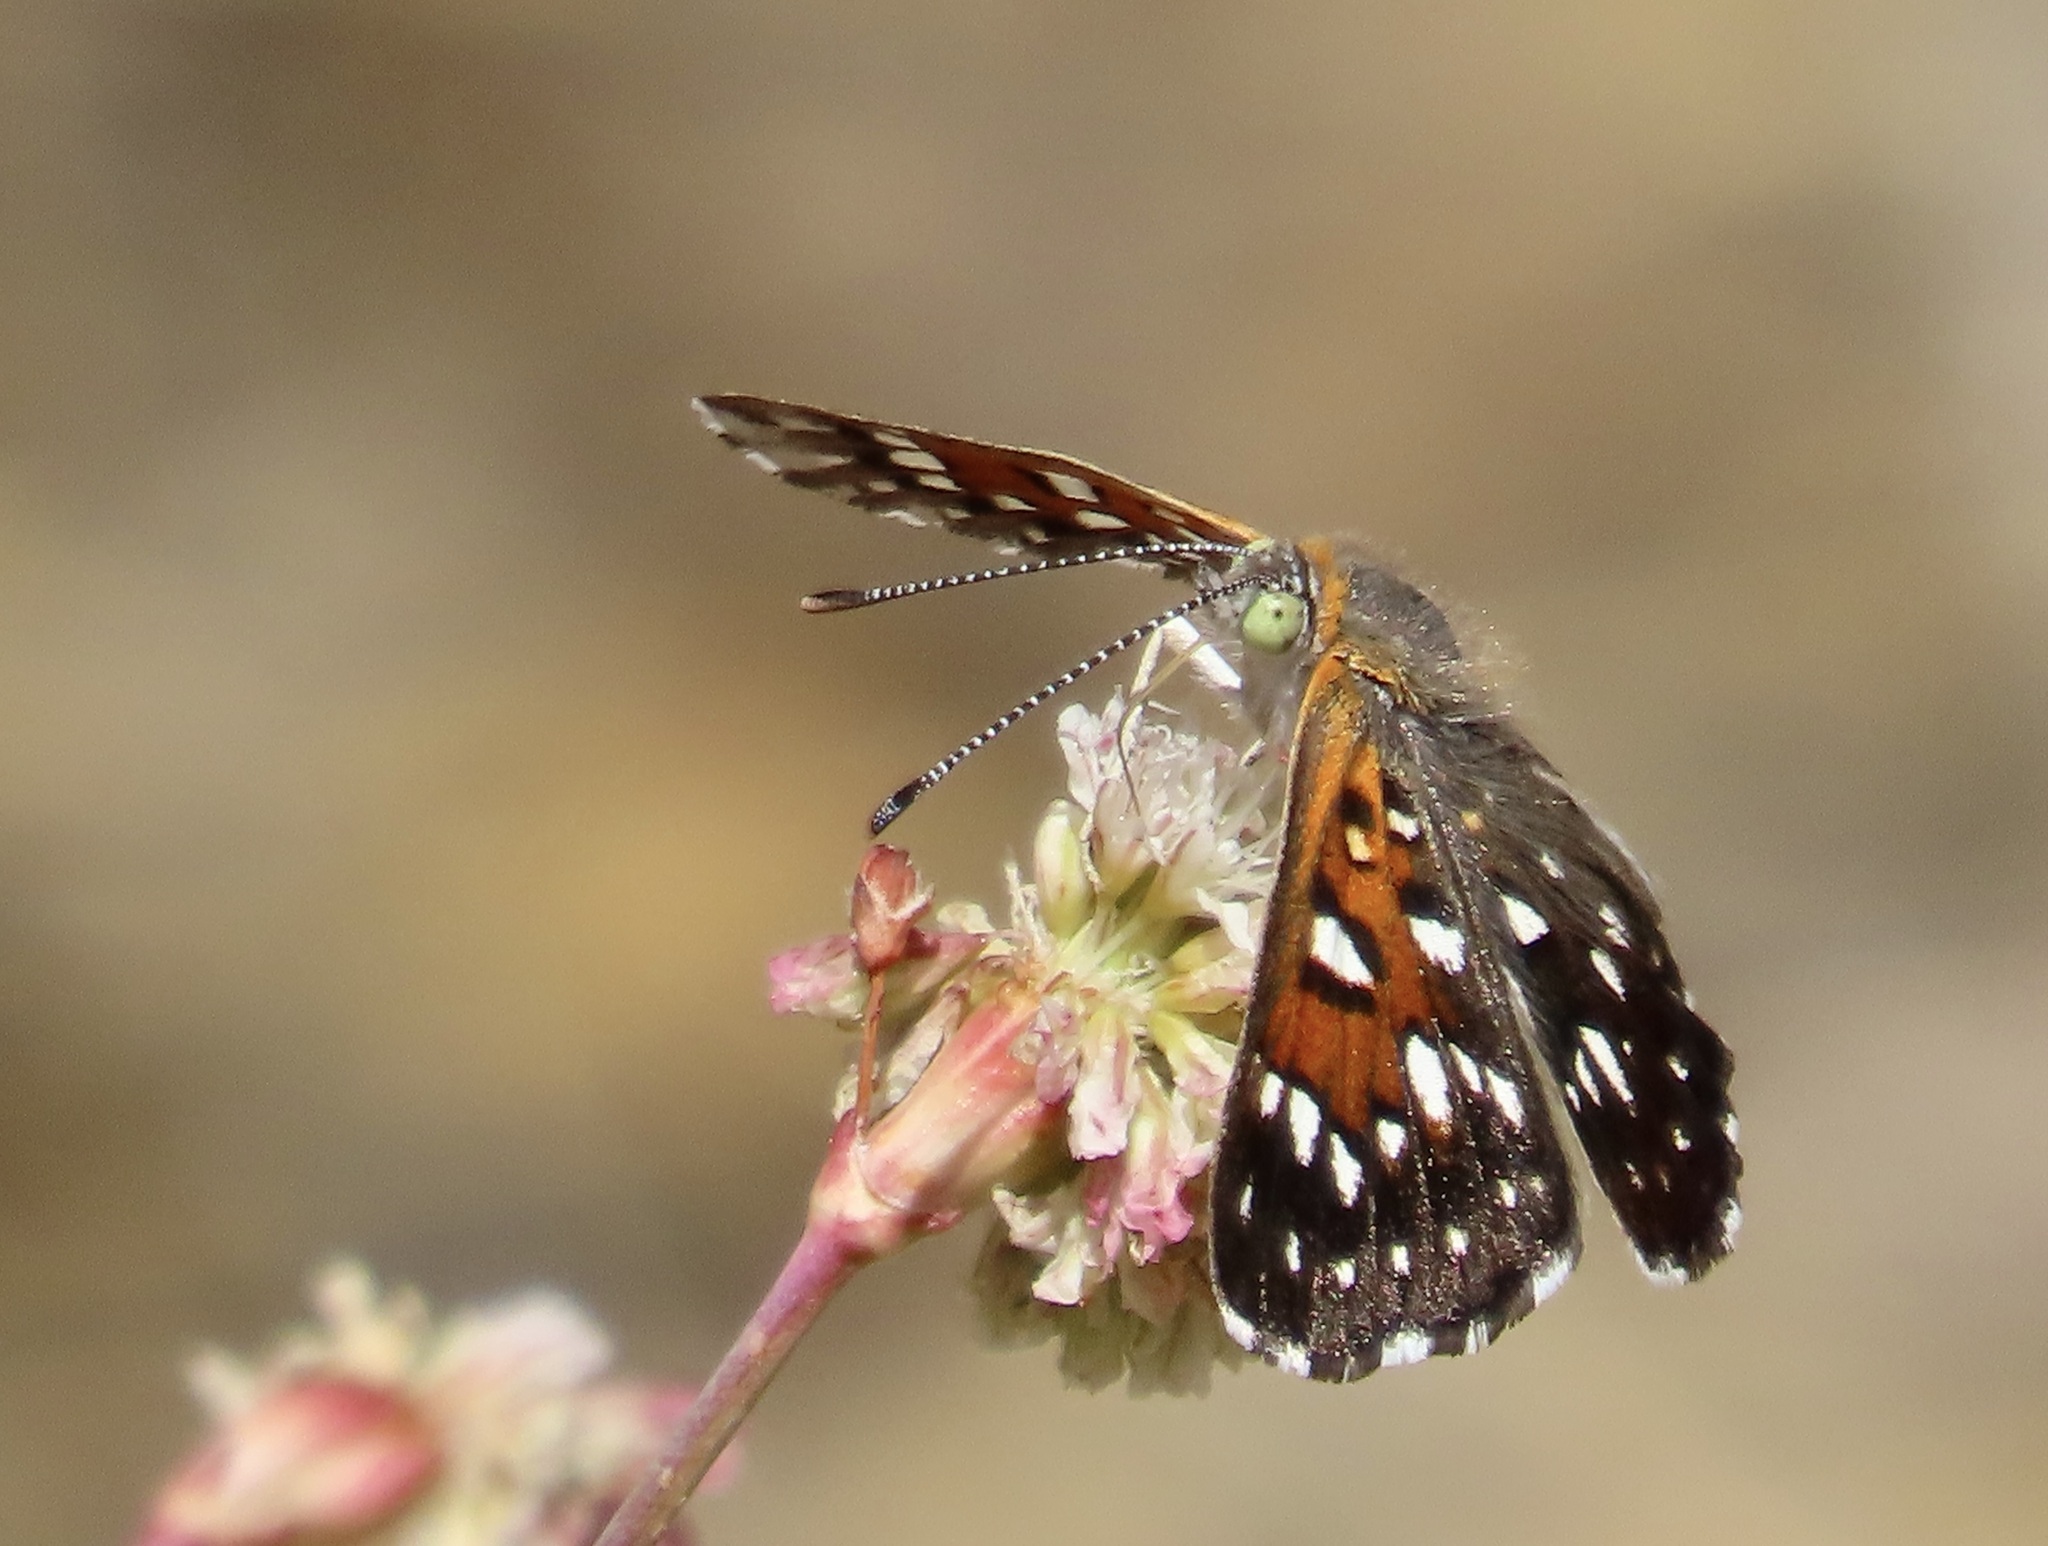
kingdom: Animalia
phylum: Arthropoda
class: Insecta
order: Lepidoptera
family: Riodinidae
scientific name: Riodinidae
